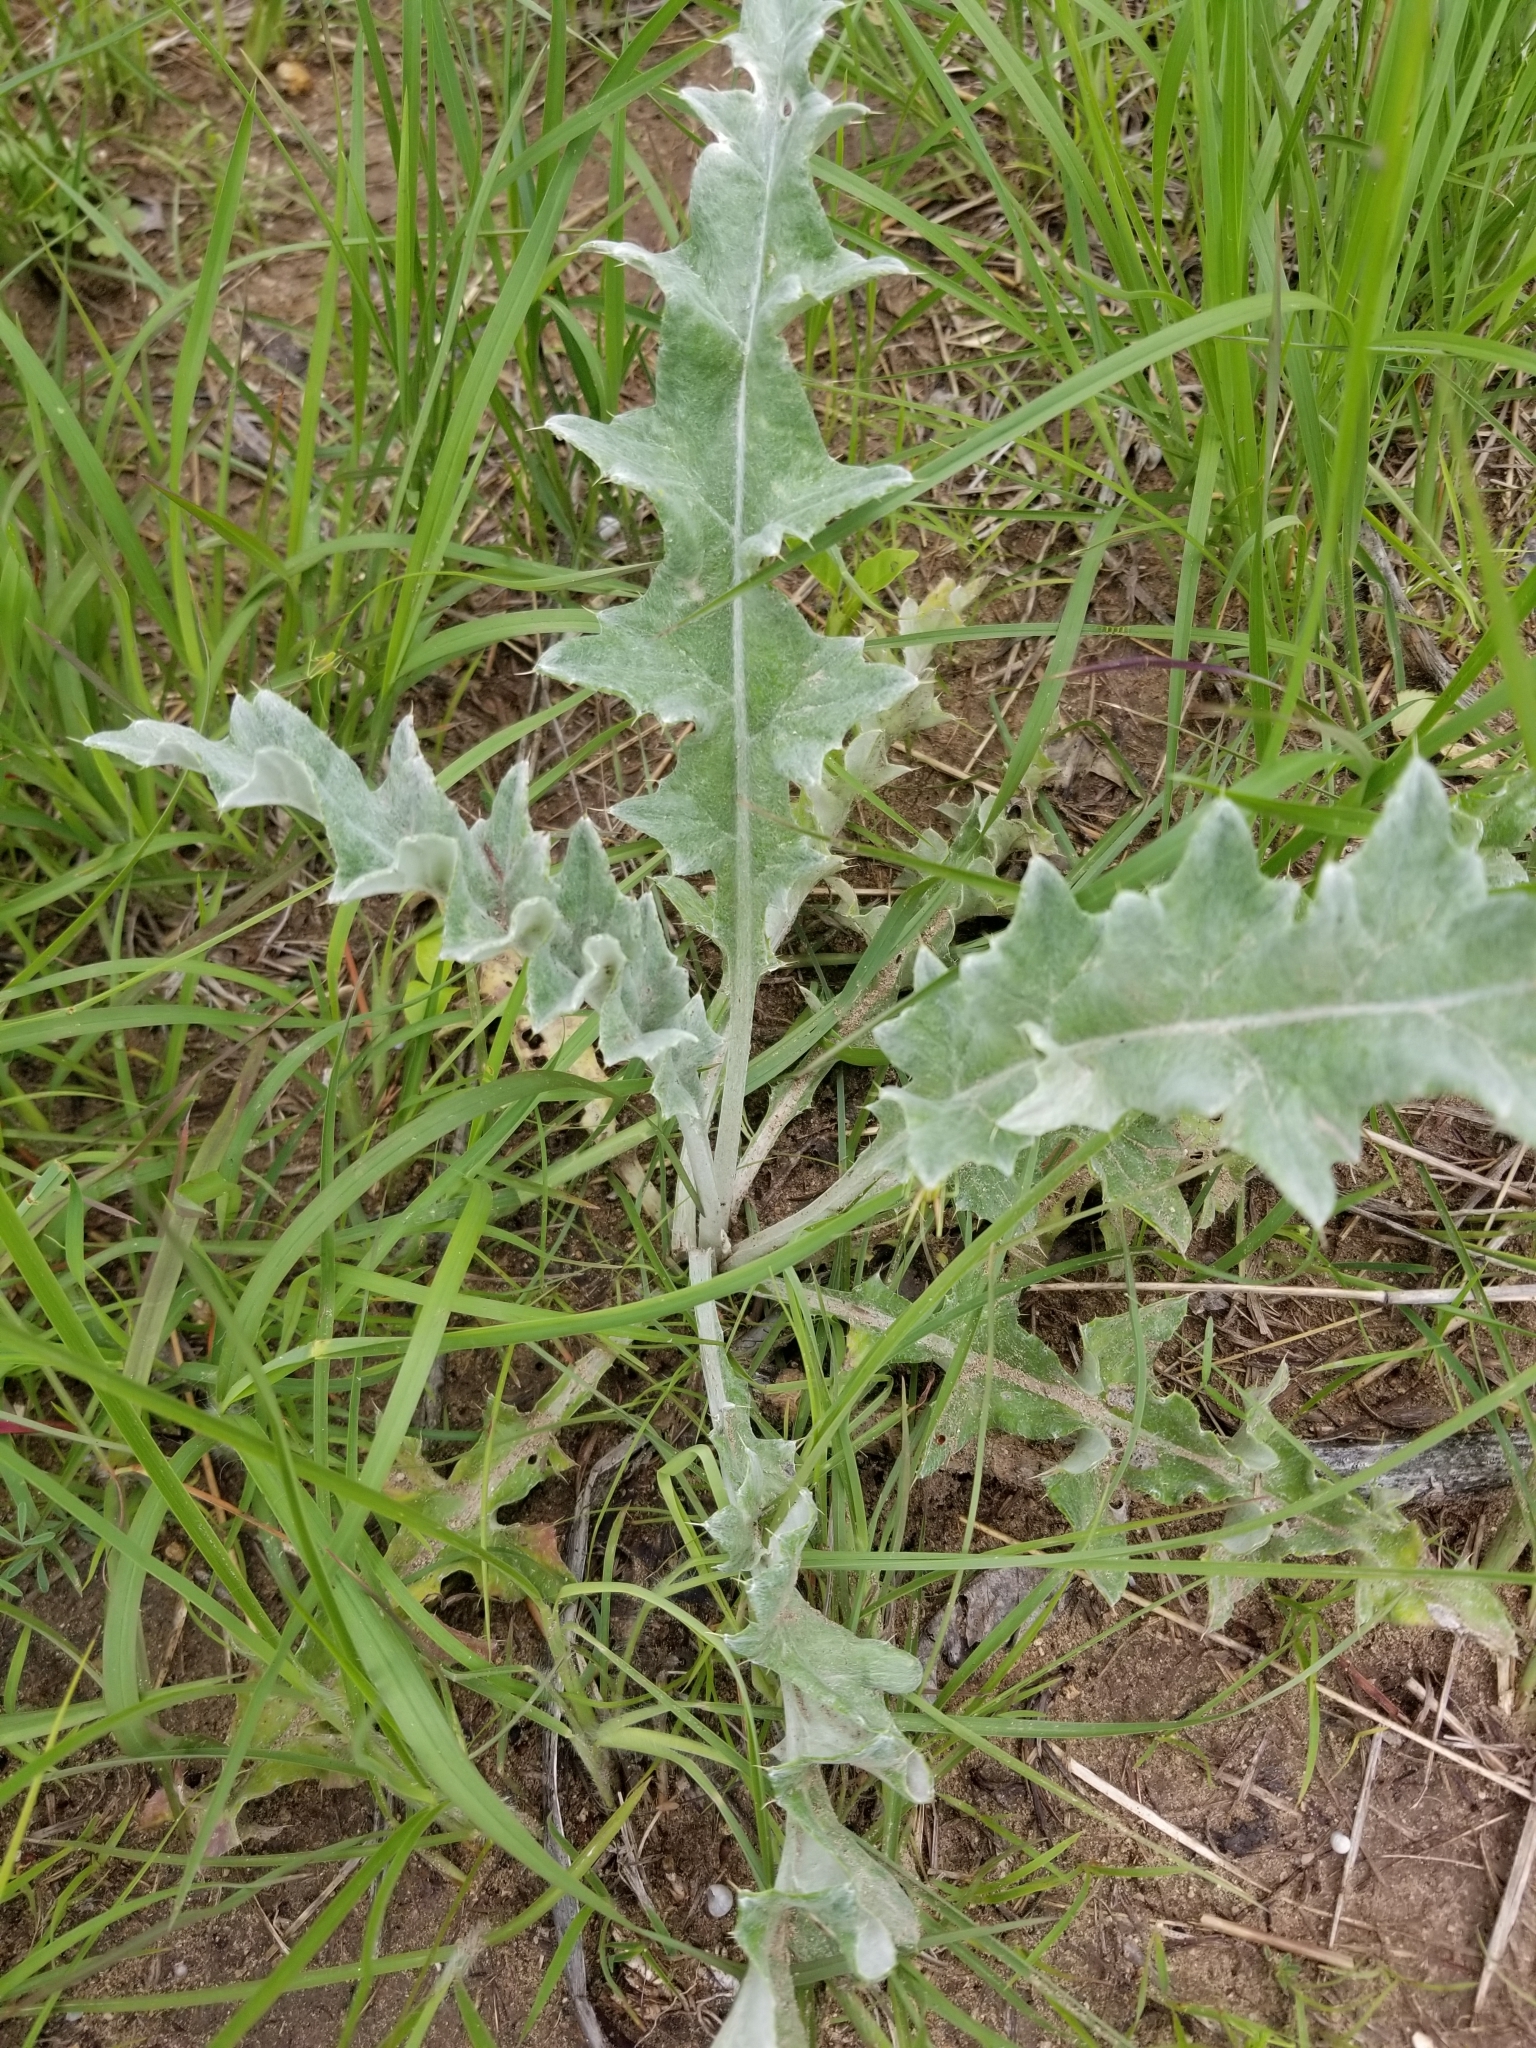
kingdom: Plantae
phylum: Tracheophyta
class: Magnoliopsida
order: Asterales
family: Asteraceae
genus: Cirsium
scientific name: Cirsium undulatum
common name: Pasture thistle
